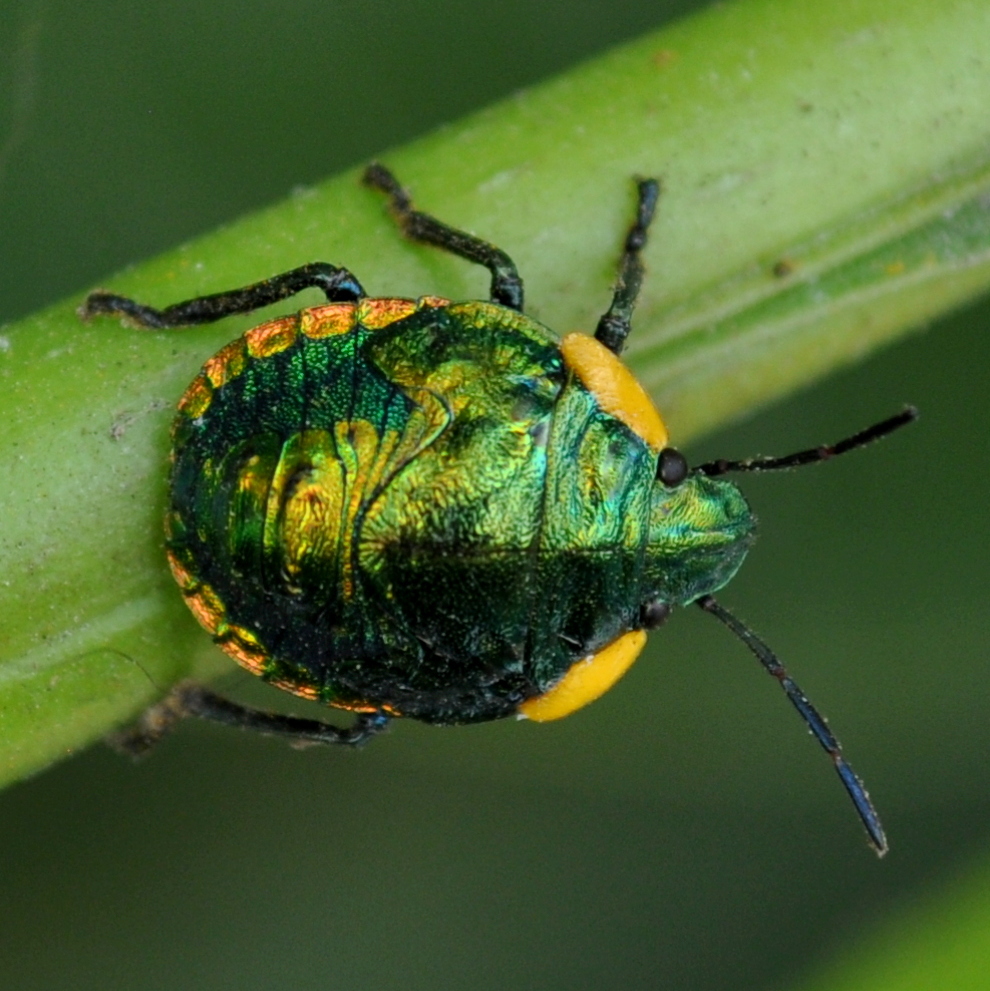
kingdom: Animalia
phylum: Arthropoda
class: Insecta
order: Hemiptera
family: Scutelleridae
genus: Pachycoris
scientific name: Pachycoris torridus
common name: Torrid jewel bug
